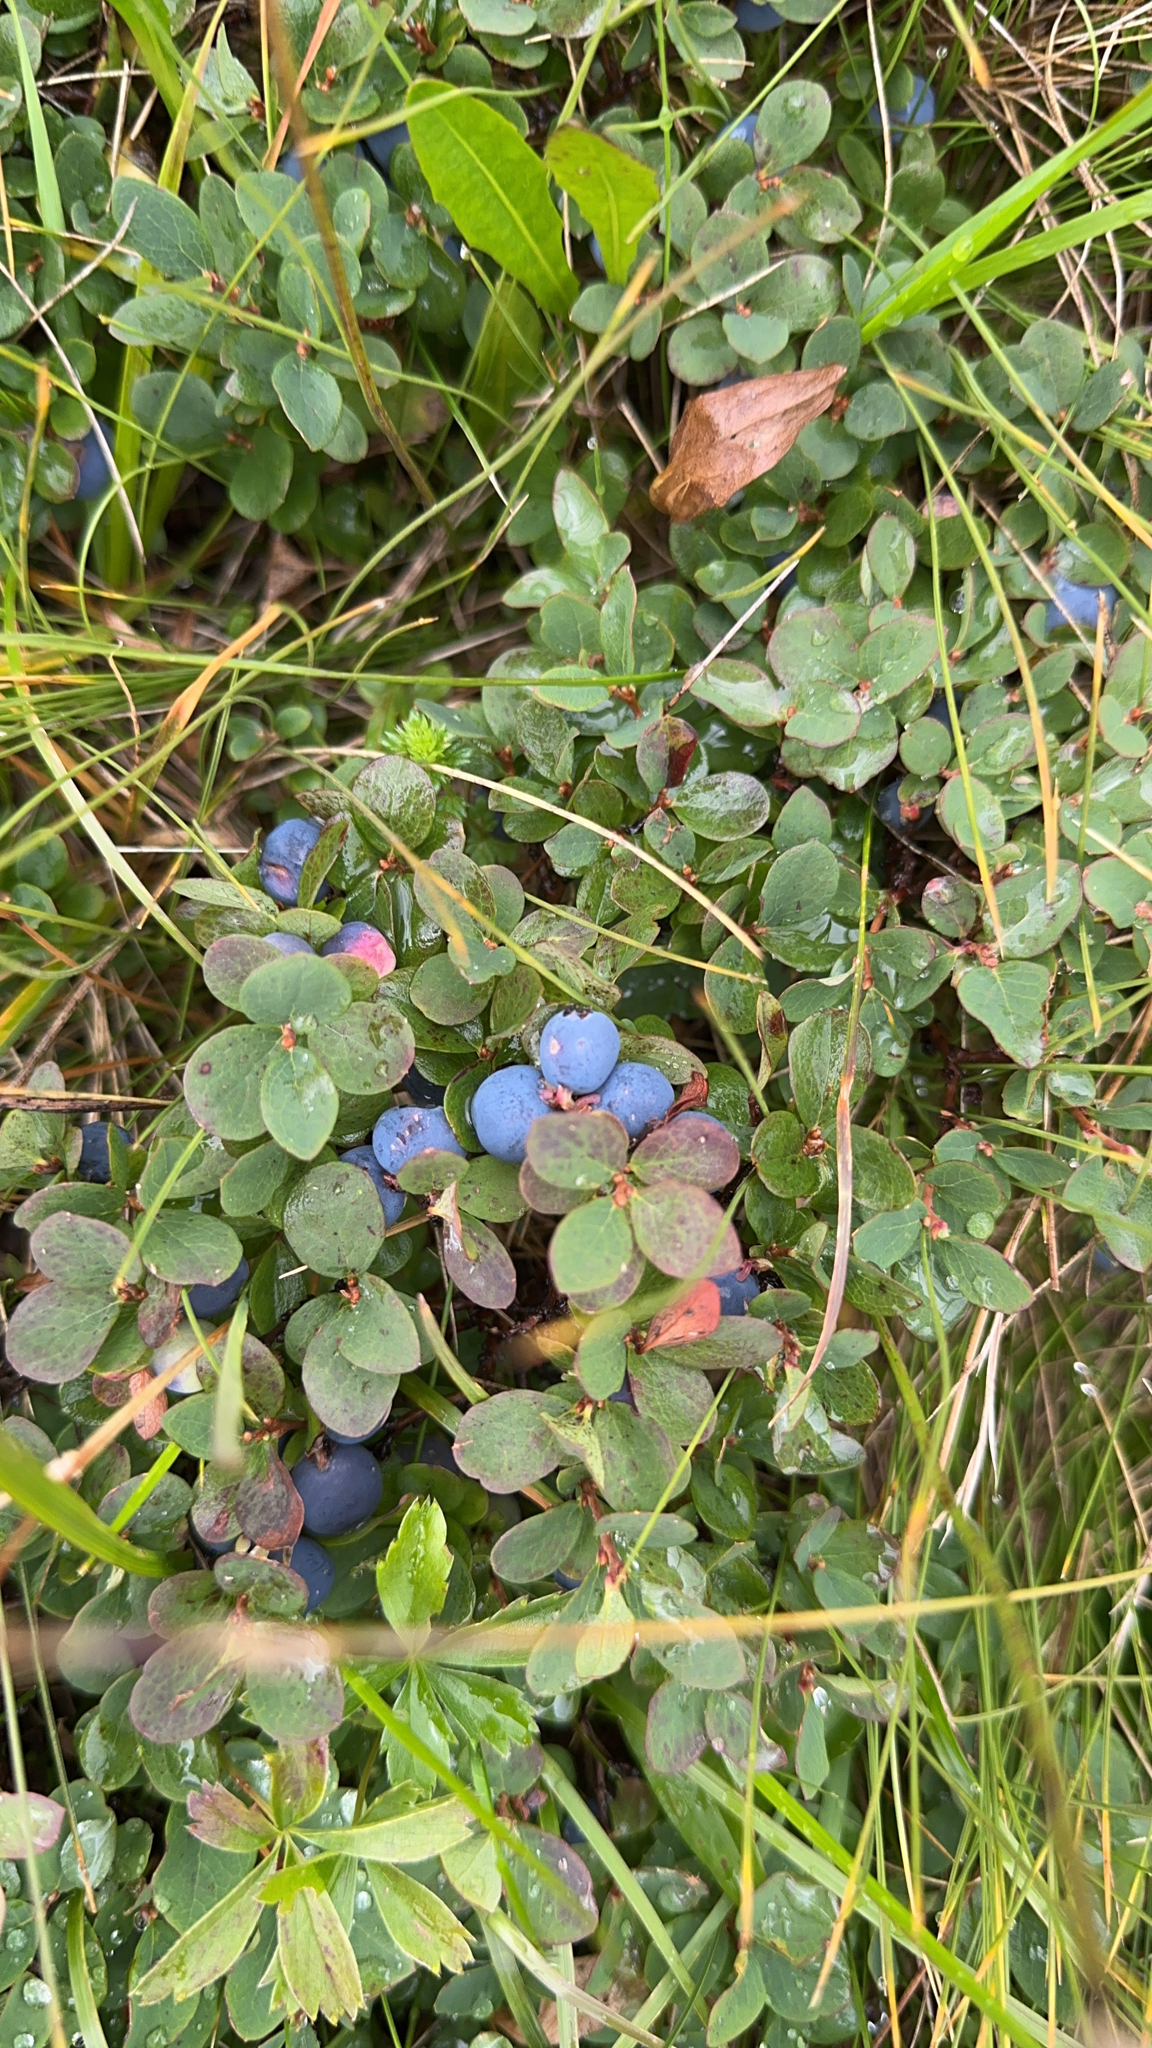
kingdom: Plantae
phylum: Tracheophyta
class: Magnoliopsida
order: Ericales
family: Ericaceae
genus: Vaccinium
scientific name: Vaccinium uliginosum
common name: Bog bilberry
